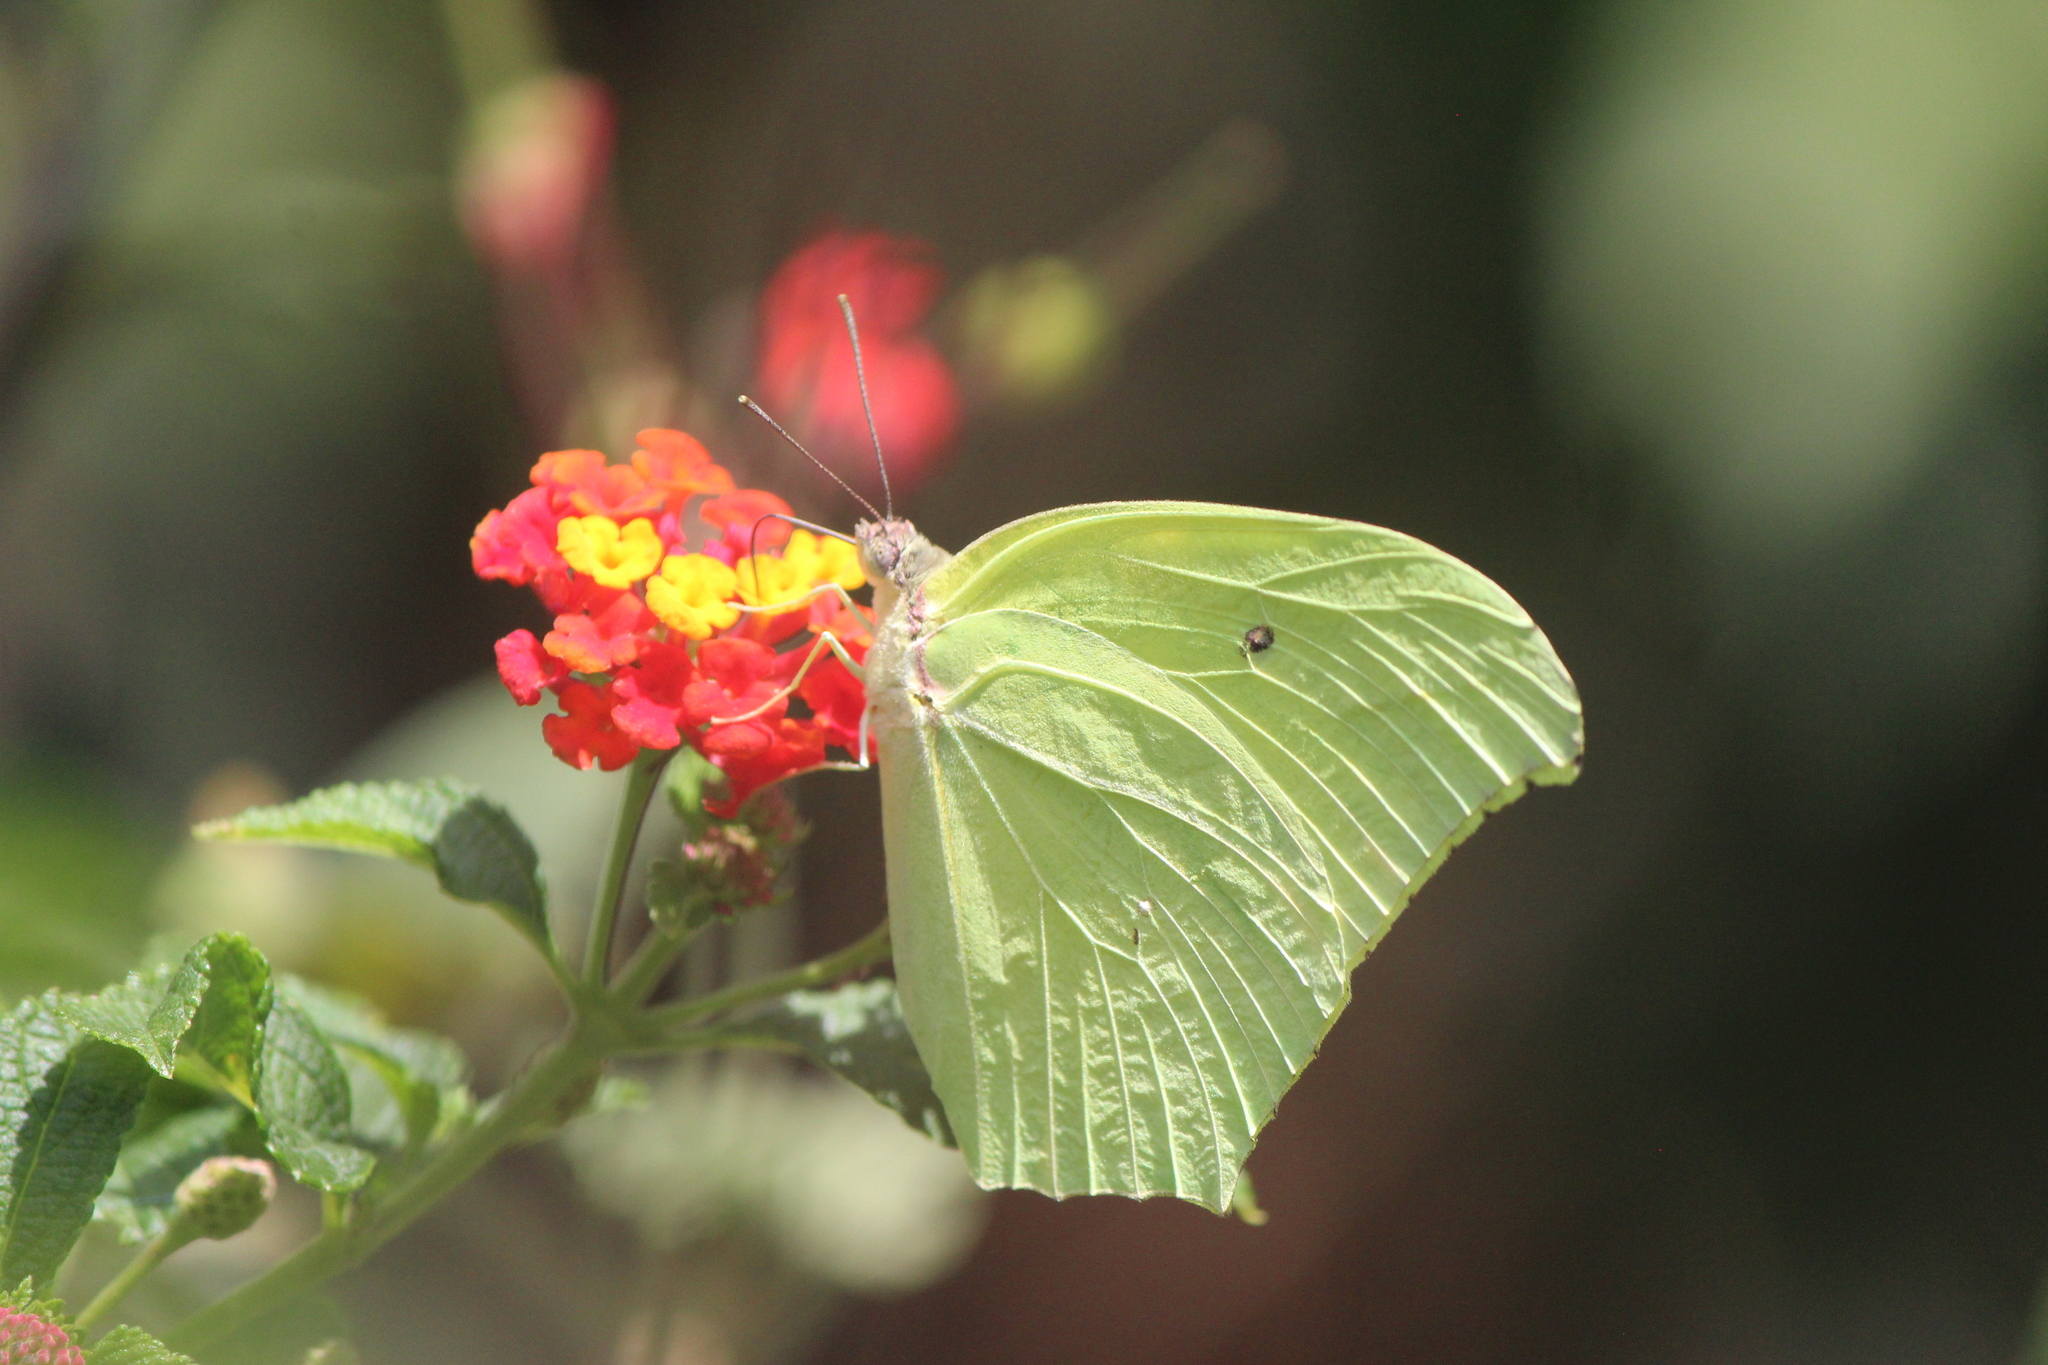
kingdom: Animalia
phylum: Arthropoda
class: Insecta
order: Lepidoptera
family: Pieridae
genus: Anteos
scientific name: Anteos maerula
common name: Angled sulphur
